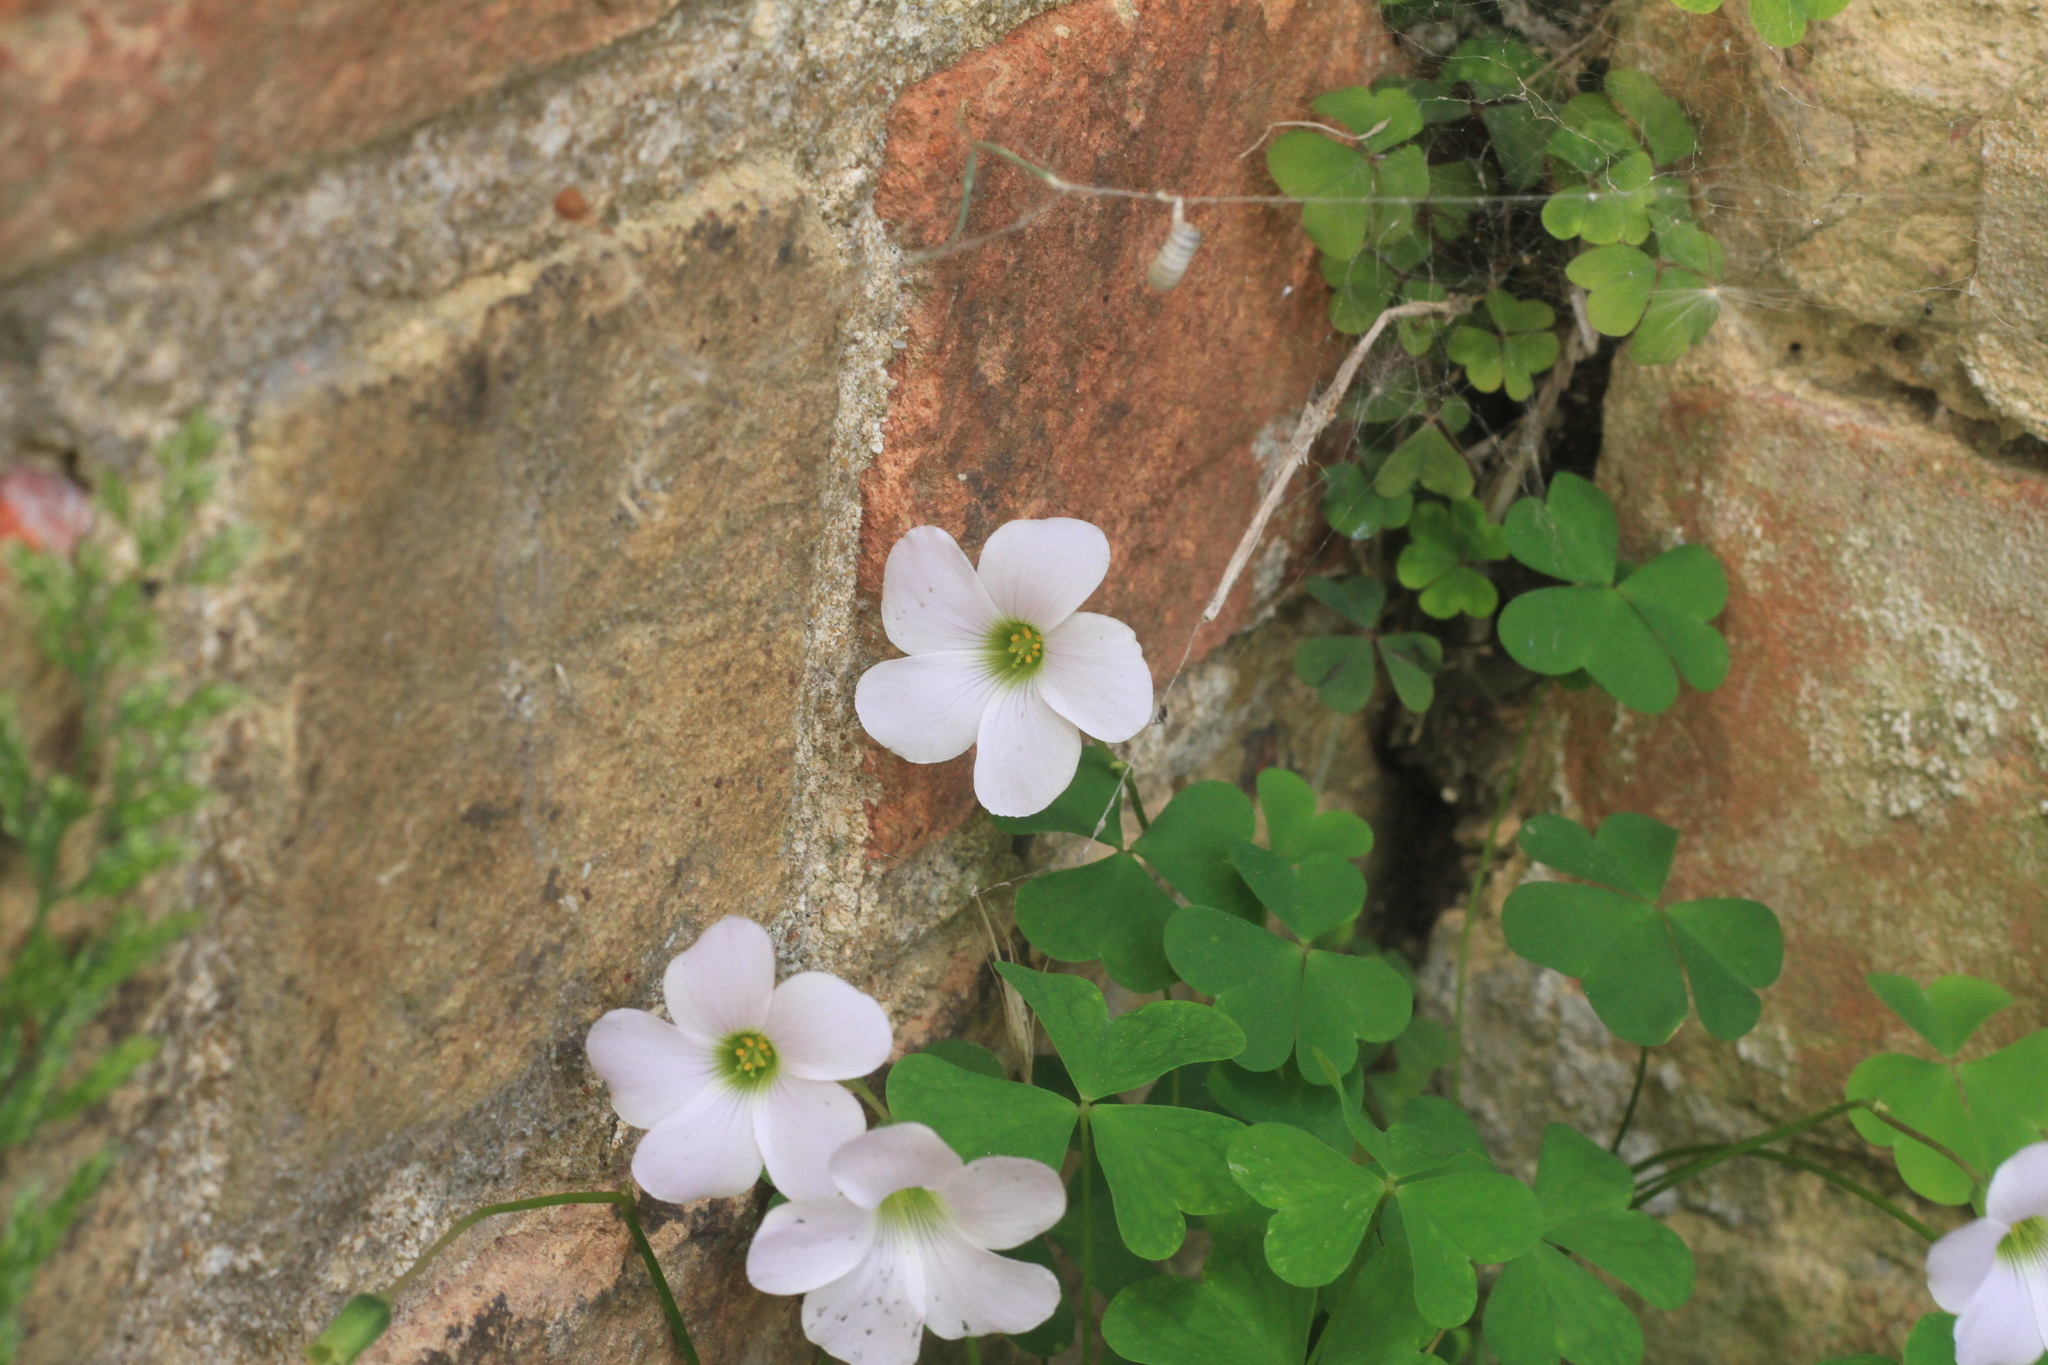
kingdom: Plantae
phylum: Tracheophyta
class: Magnoliopsida
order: Oxalidales
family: Oxalidaceae
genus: Oxalis
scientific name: Oxalis incarnata
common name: Pale pink-sorrel
